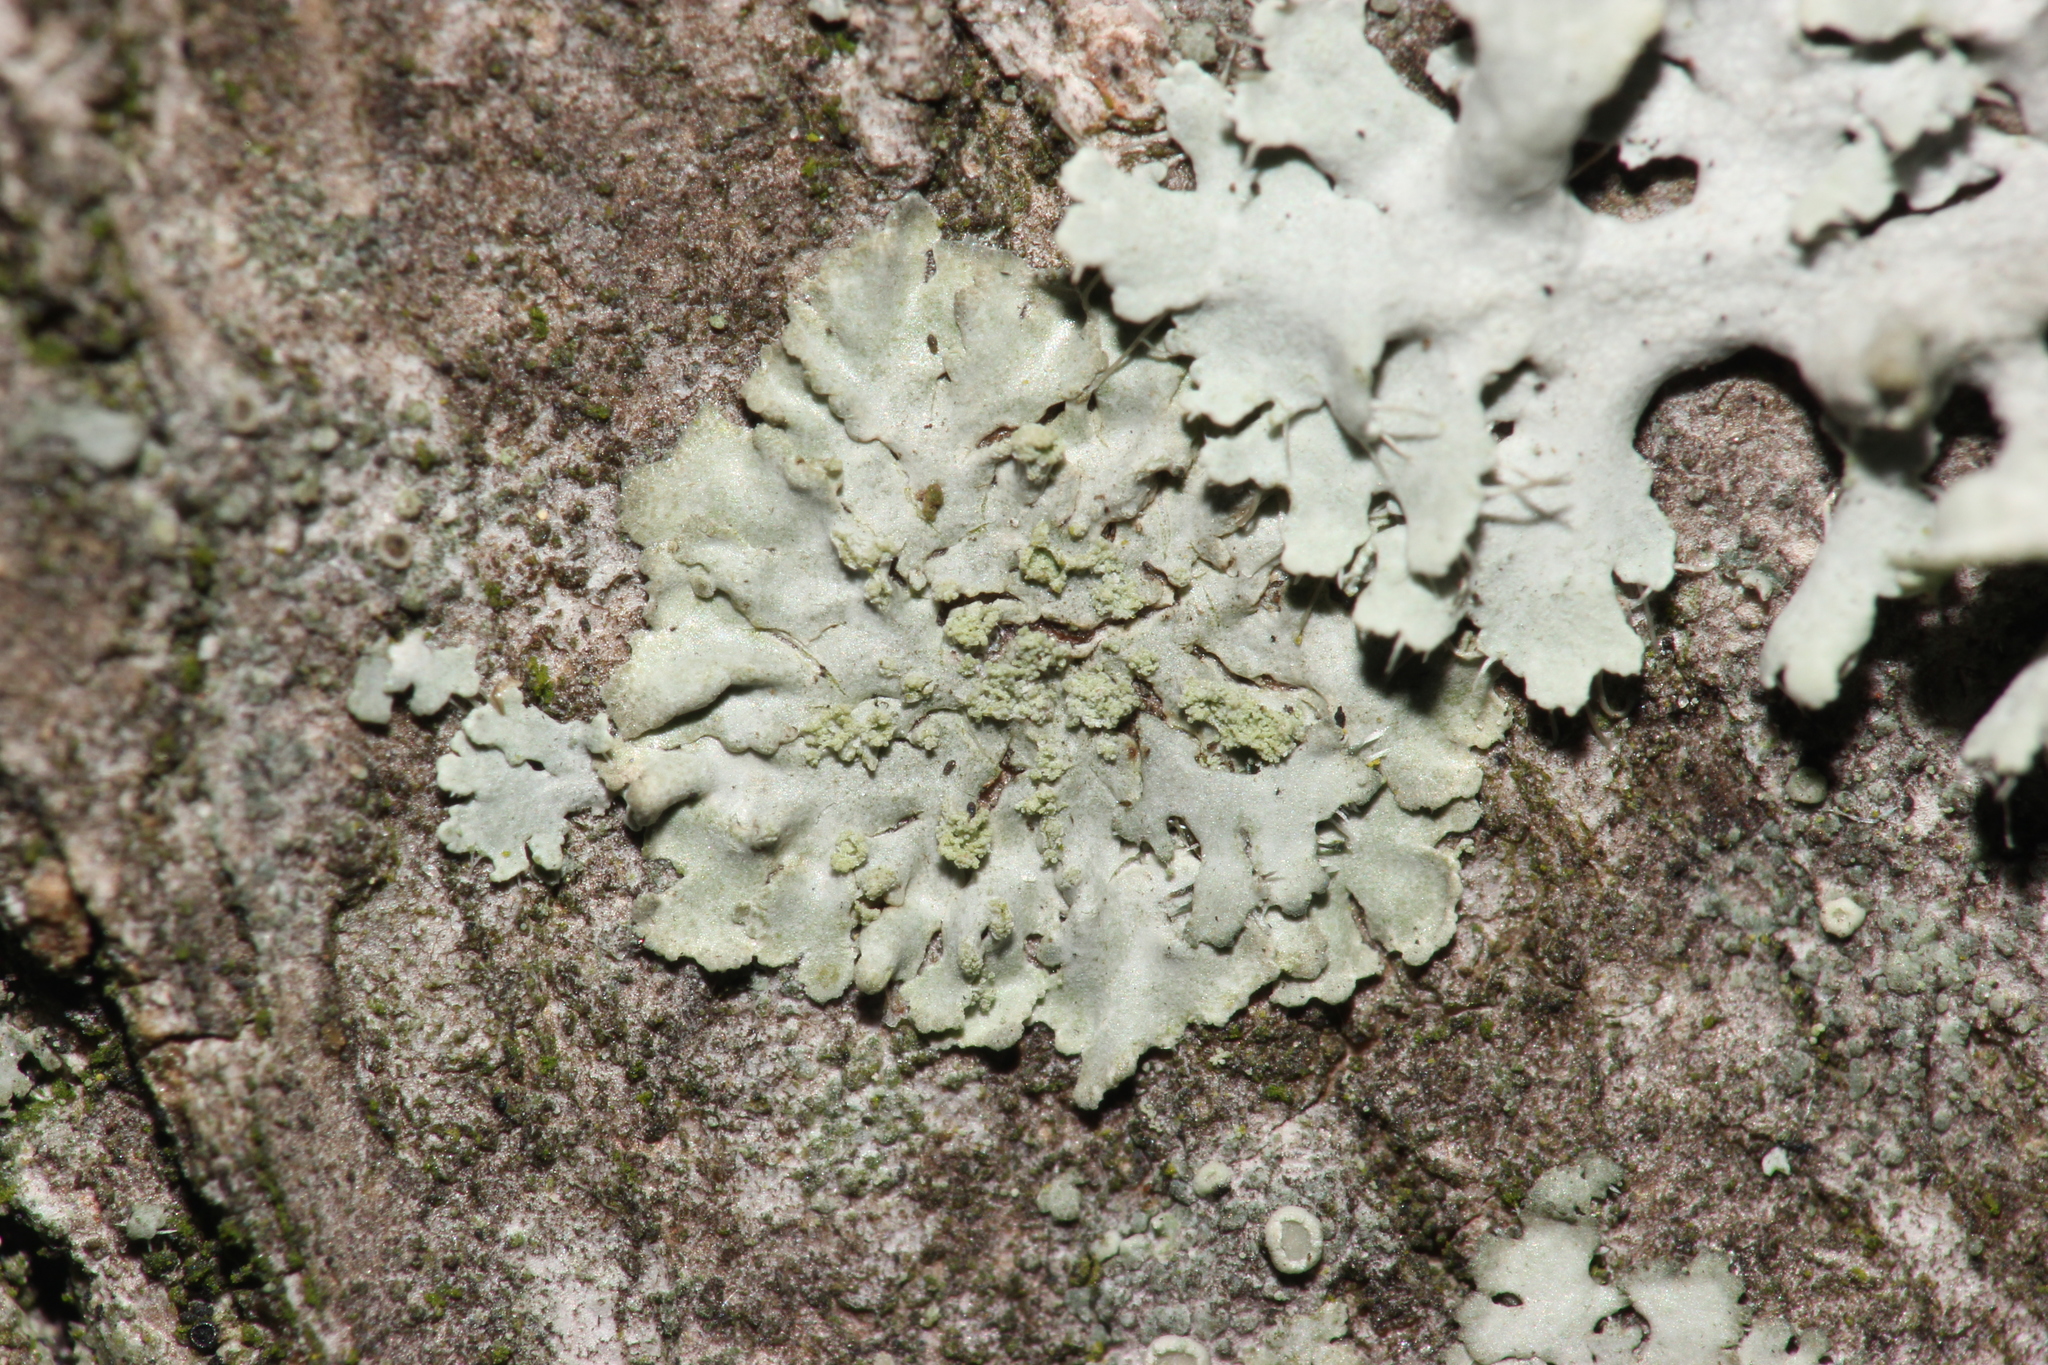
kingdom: Fungi
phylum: Ascomycota
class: Lecanoromycetes
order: Caliciales
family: Physciaceae
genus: Phaeophyscia
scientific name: Phaeophyscia orbicularis
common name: Mealy shadow lichen
